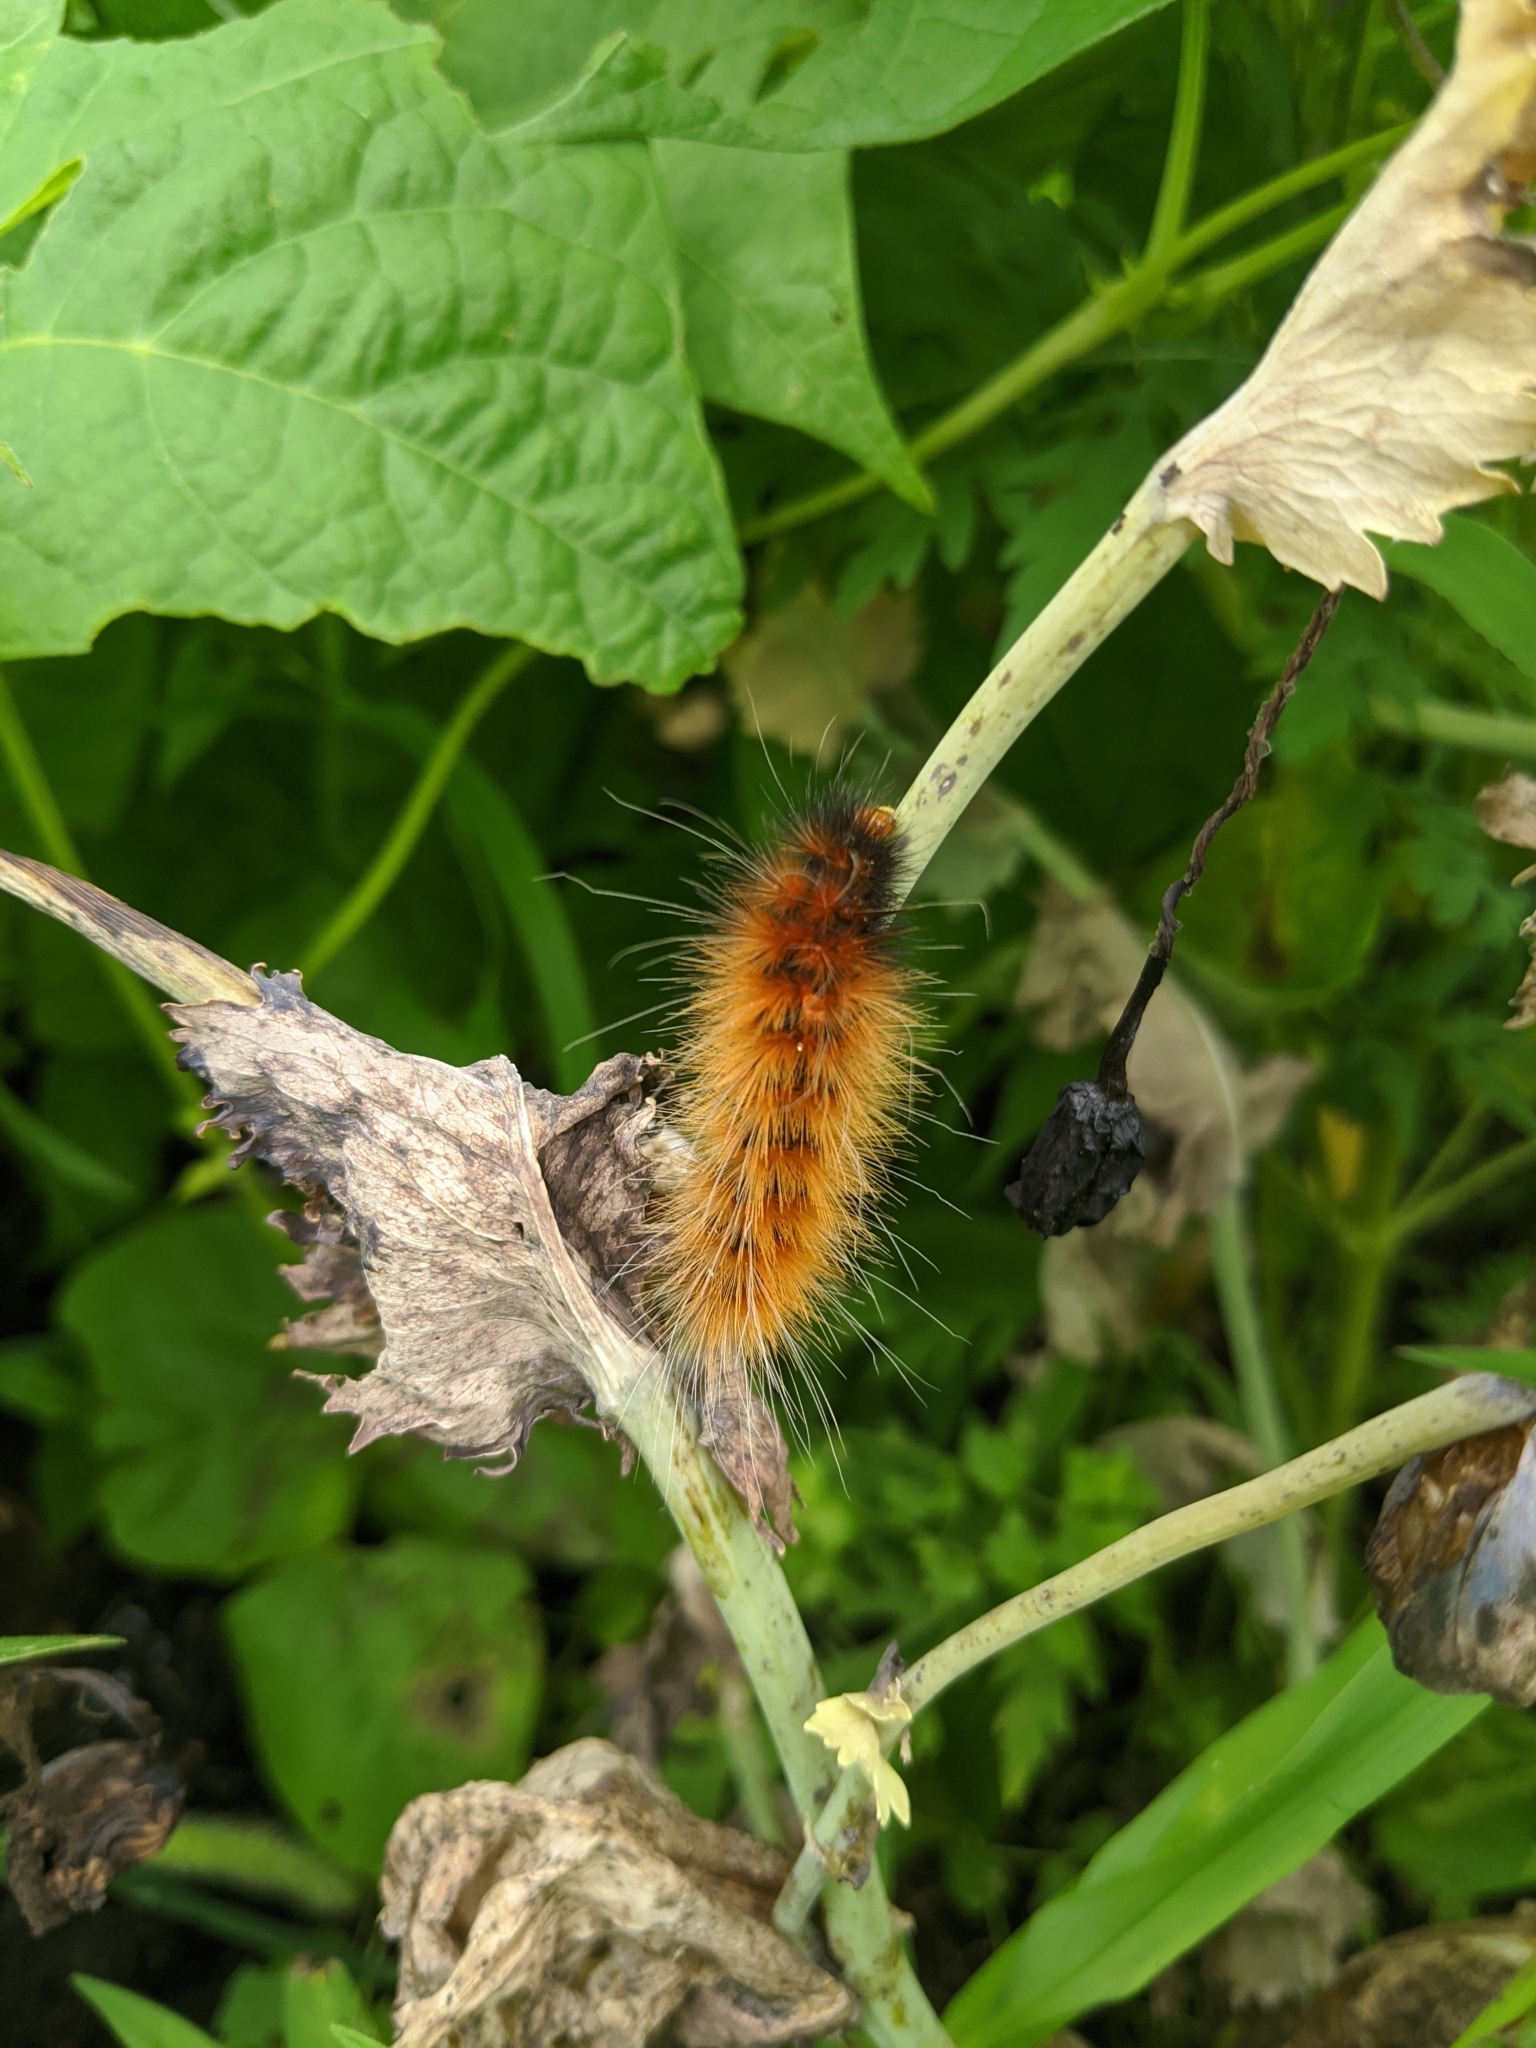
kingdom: Animalia
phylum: Arthropoda
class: Insecta
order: Lepidoptera
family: Erebidae
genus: Spilosoma
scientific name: Spilosoma virginica
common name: Virginia tiger moth
